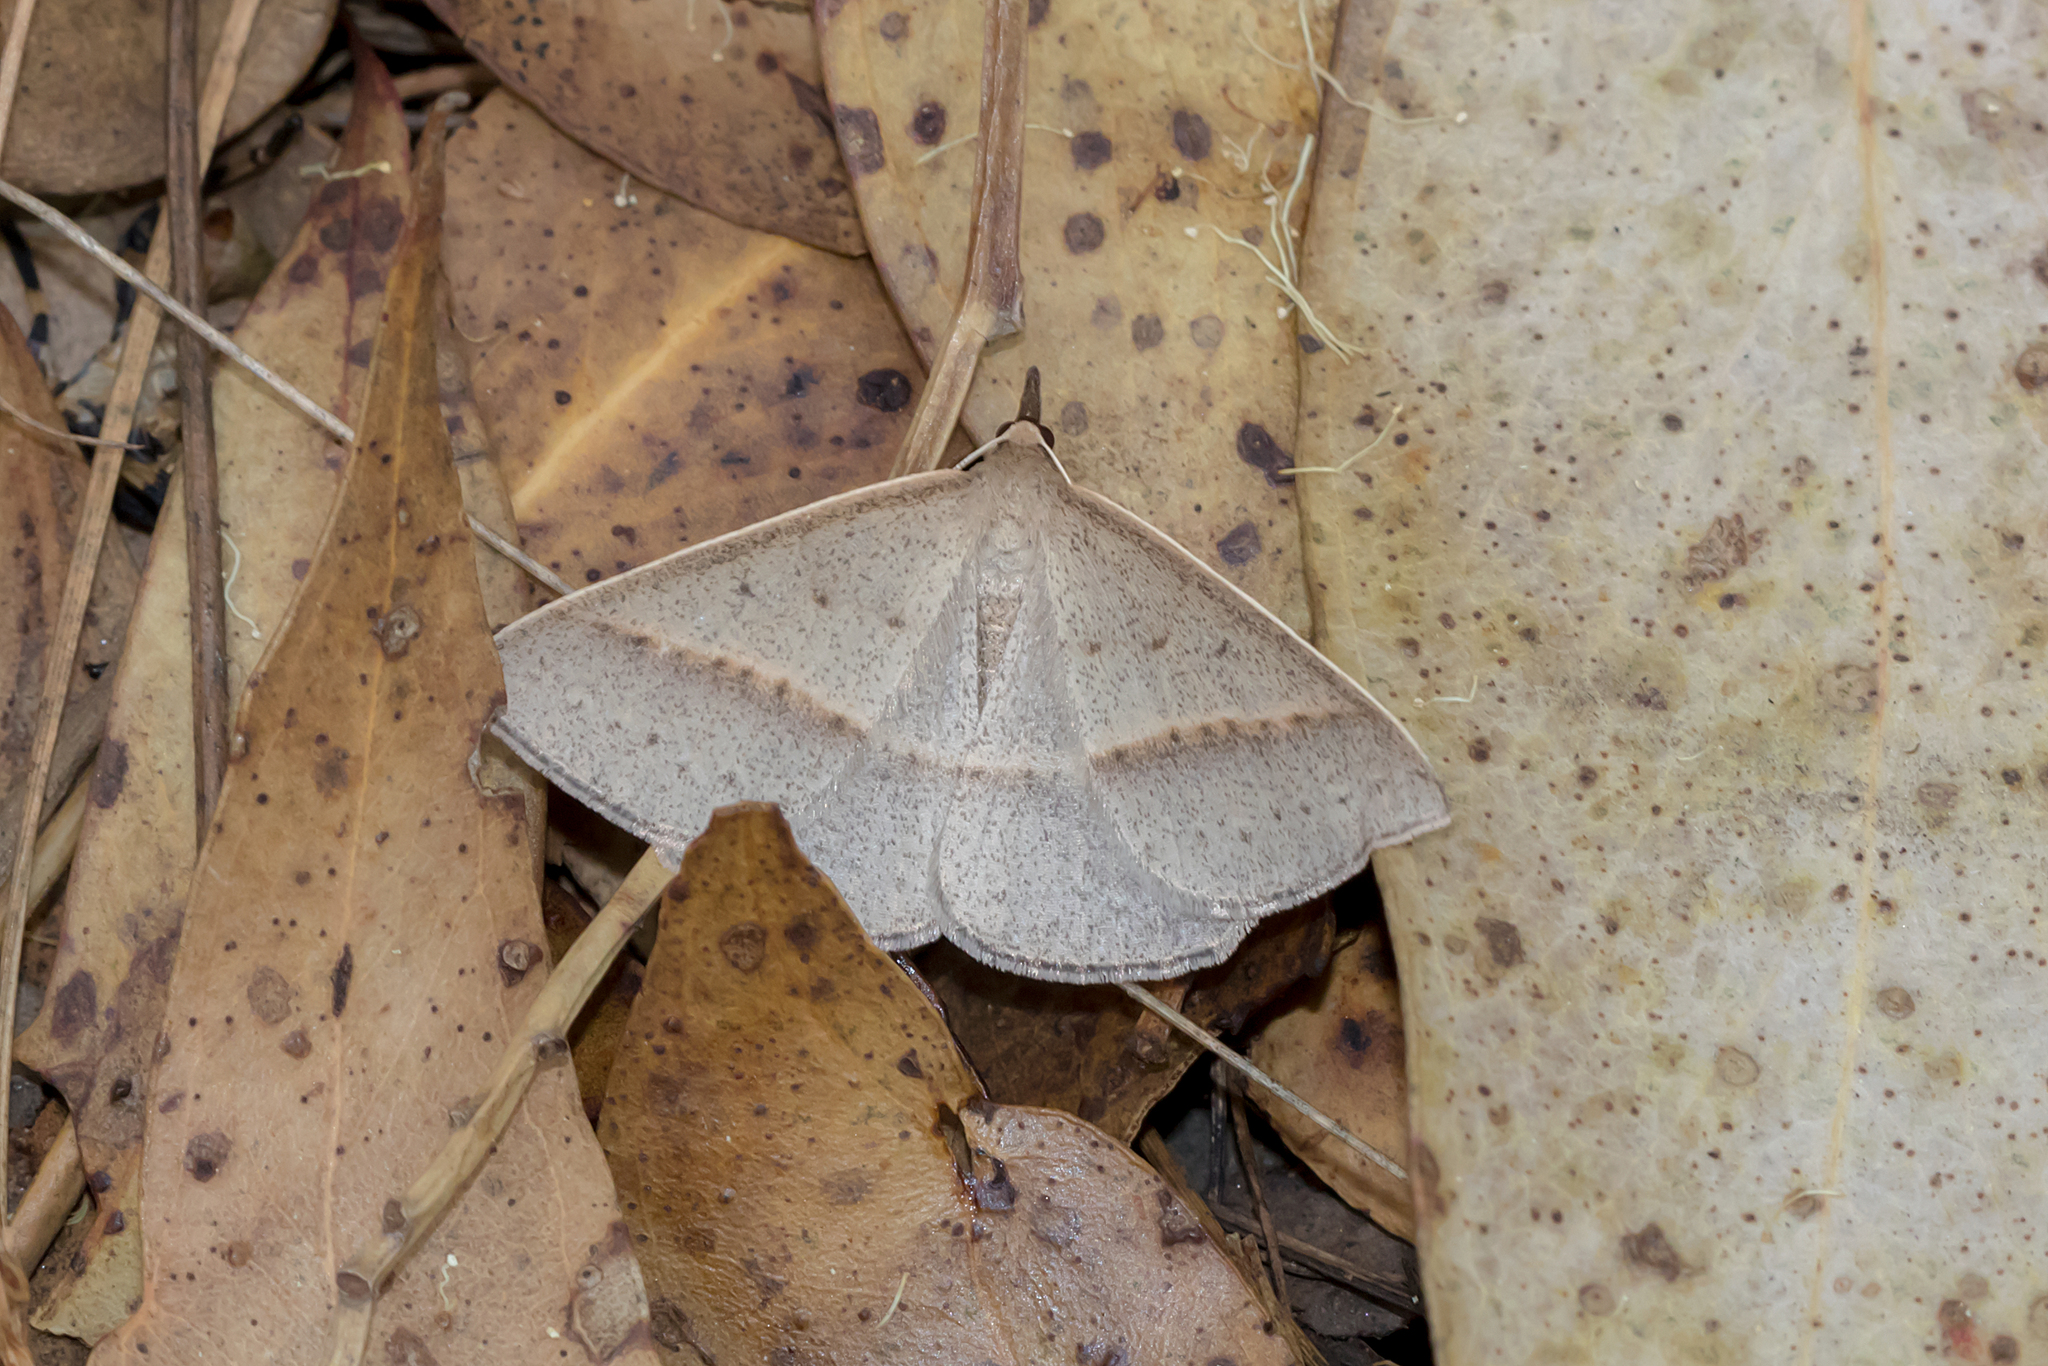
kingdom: Animalia
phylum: Arthropoda
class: Insecta
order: Lepidoptera
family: Geometridae
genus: Epidesmia
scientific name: Epidesmia tryxaria
